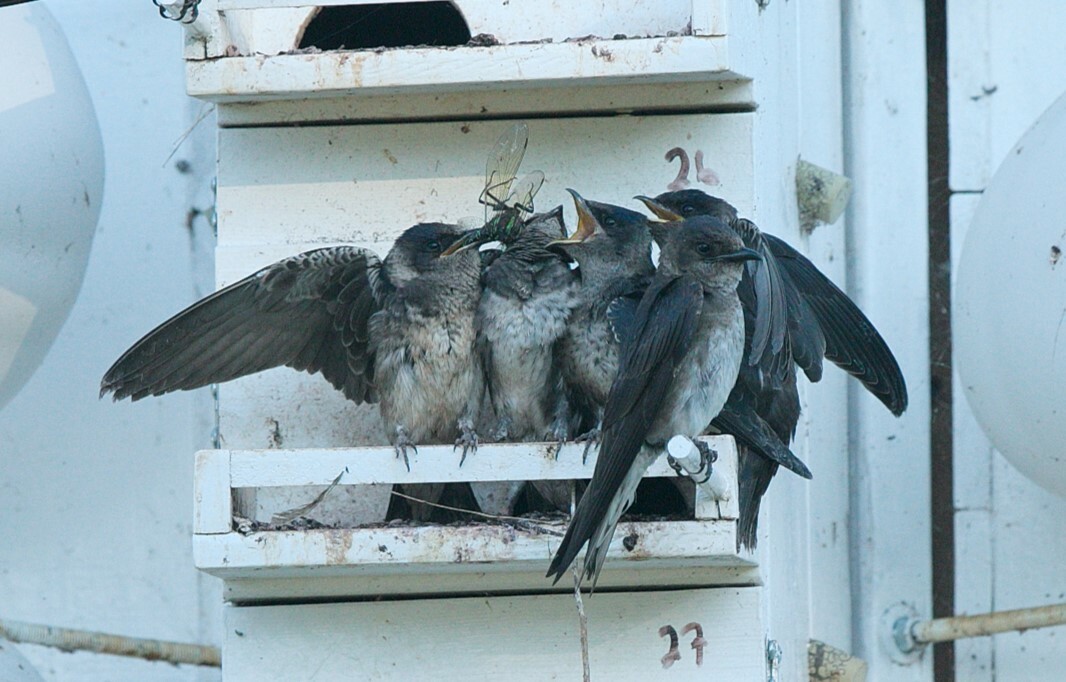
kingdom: Animalia
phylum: Arthropoda
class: Insecta
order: Odonata
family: Aeshnidae
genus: Epiaeschna
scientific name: Epiaeschna heros
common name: Swamp darner
